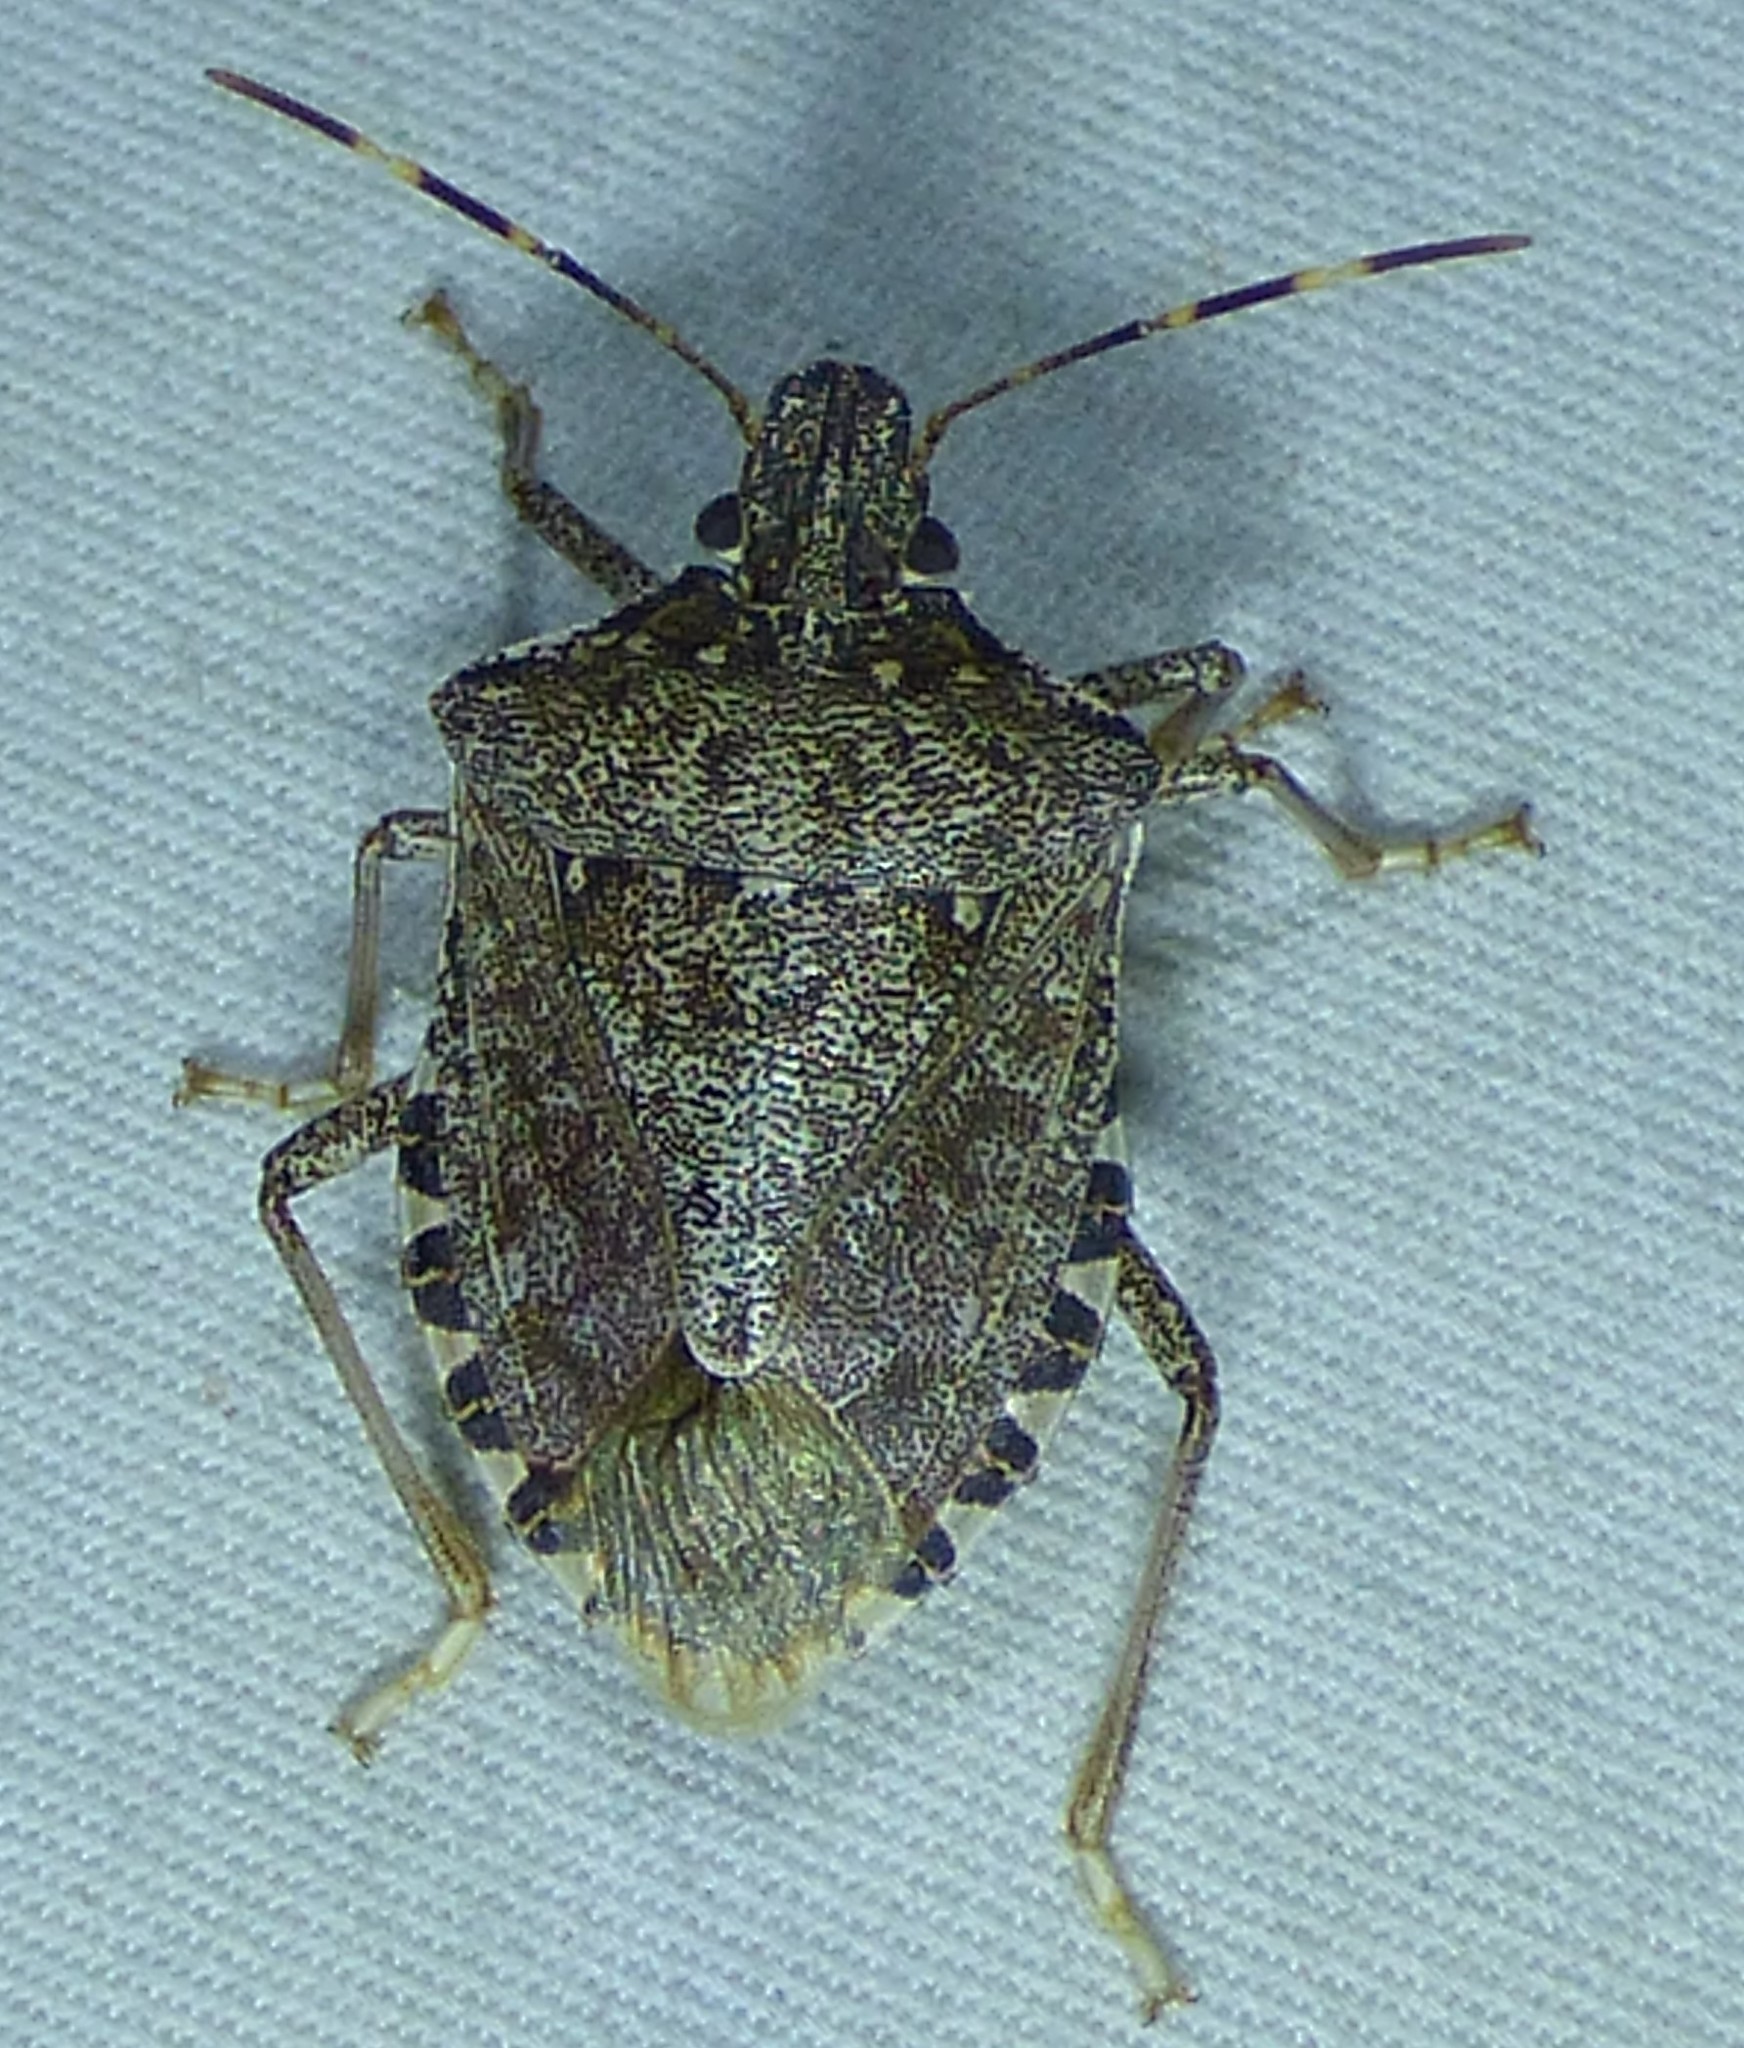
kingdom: Animalia
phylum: Arthropoda
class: Insecta
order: Hemiptera
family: Pentatomidae
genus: Halyomorpha
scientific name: Halyomorpha halys
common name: Brown marmorated stink bug
